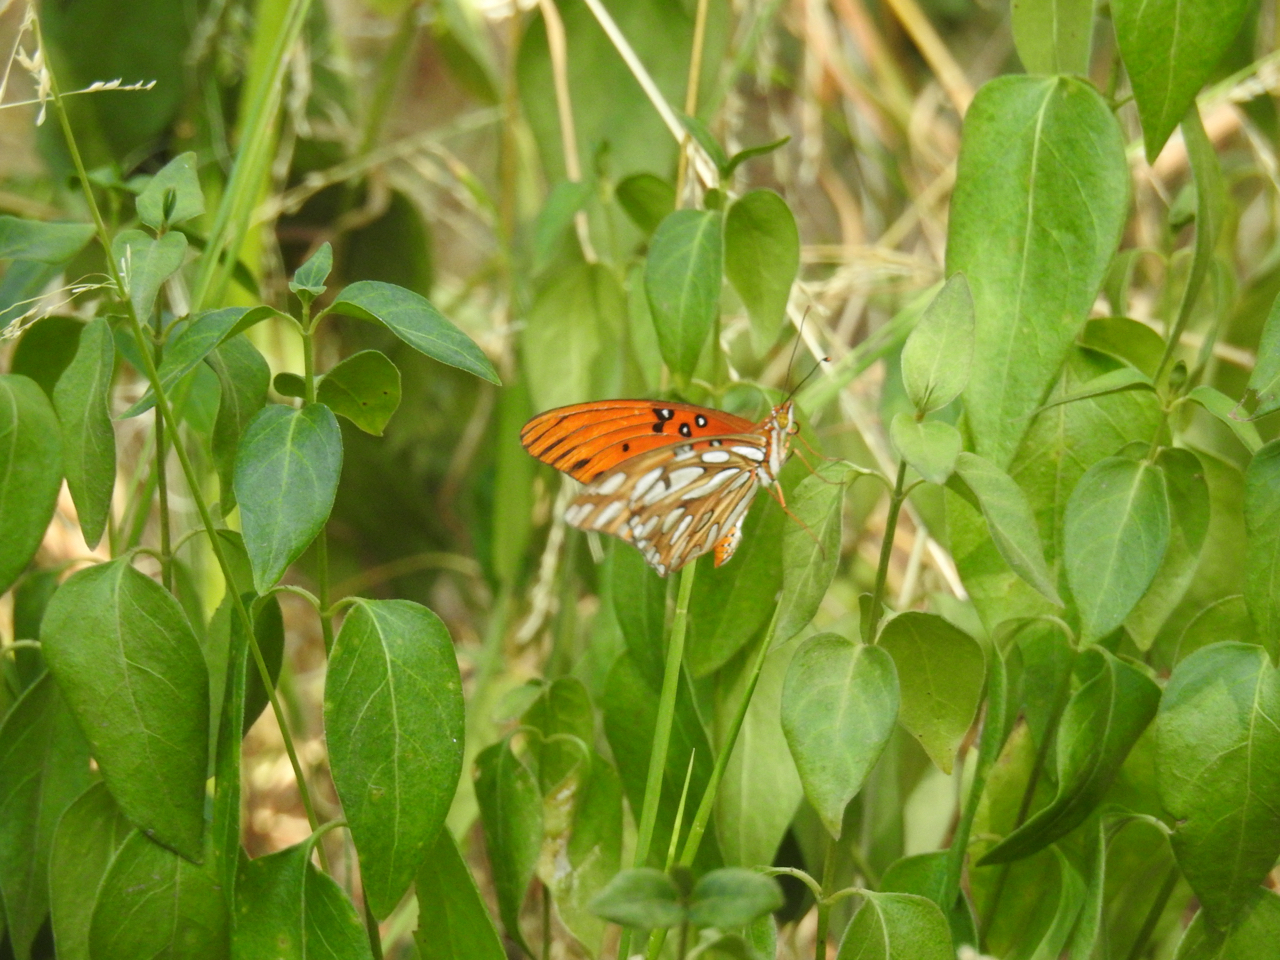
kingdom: Animalia
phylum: Arthropoda
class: Insecta
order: Lepidoptera
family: Nymphalidae
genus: Dione
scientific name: Dione vanillae
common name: Gulf fritillary
